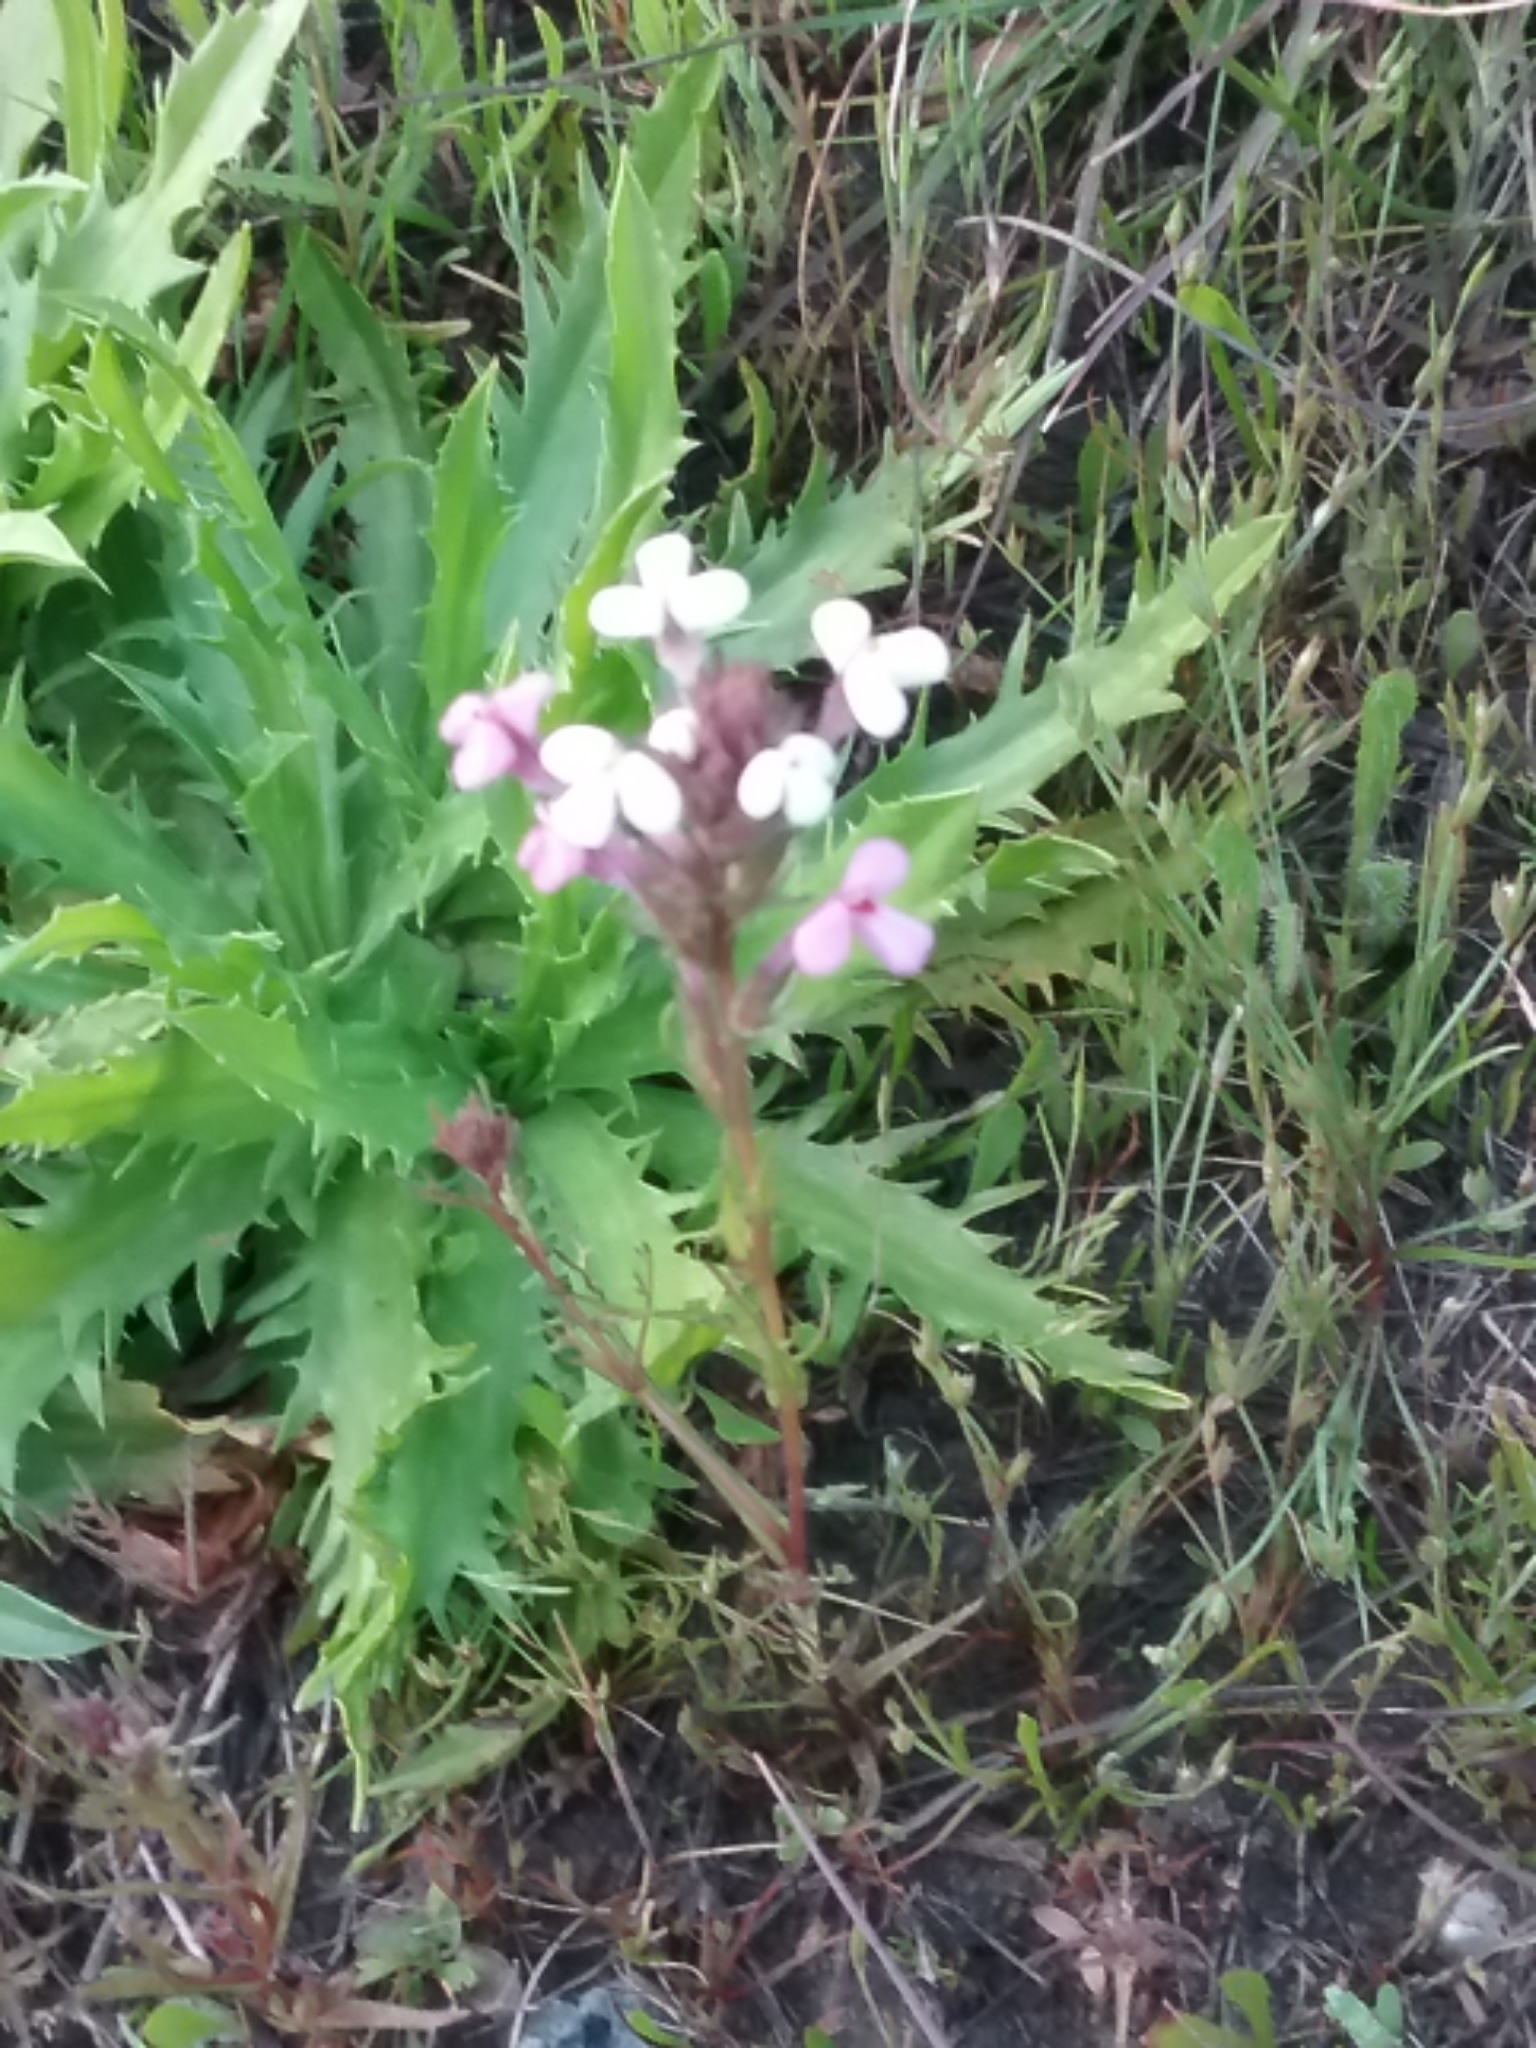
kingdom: Plantae
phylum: Tracheophyta
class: Magnoliopsida
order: Lamiales
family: Orobanchaceae
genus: Triphysaria
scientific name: Triphysaria eriantha
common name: Johnny-tuck
